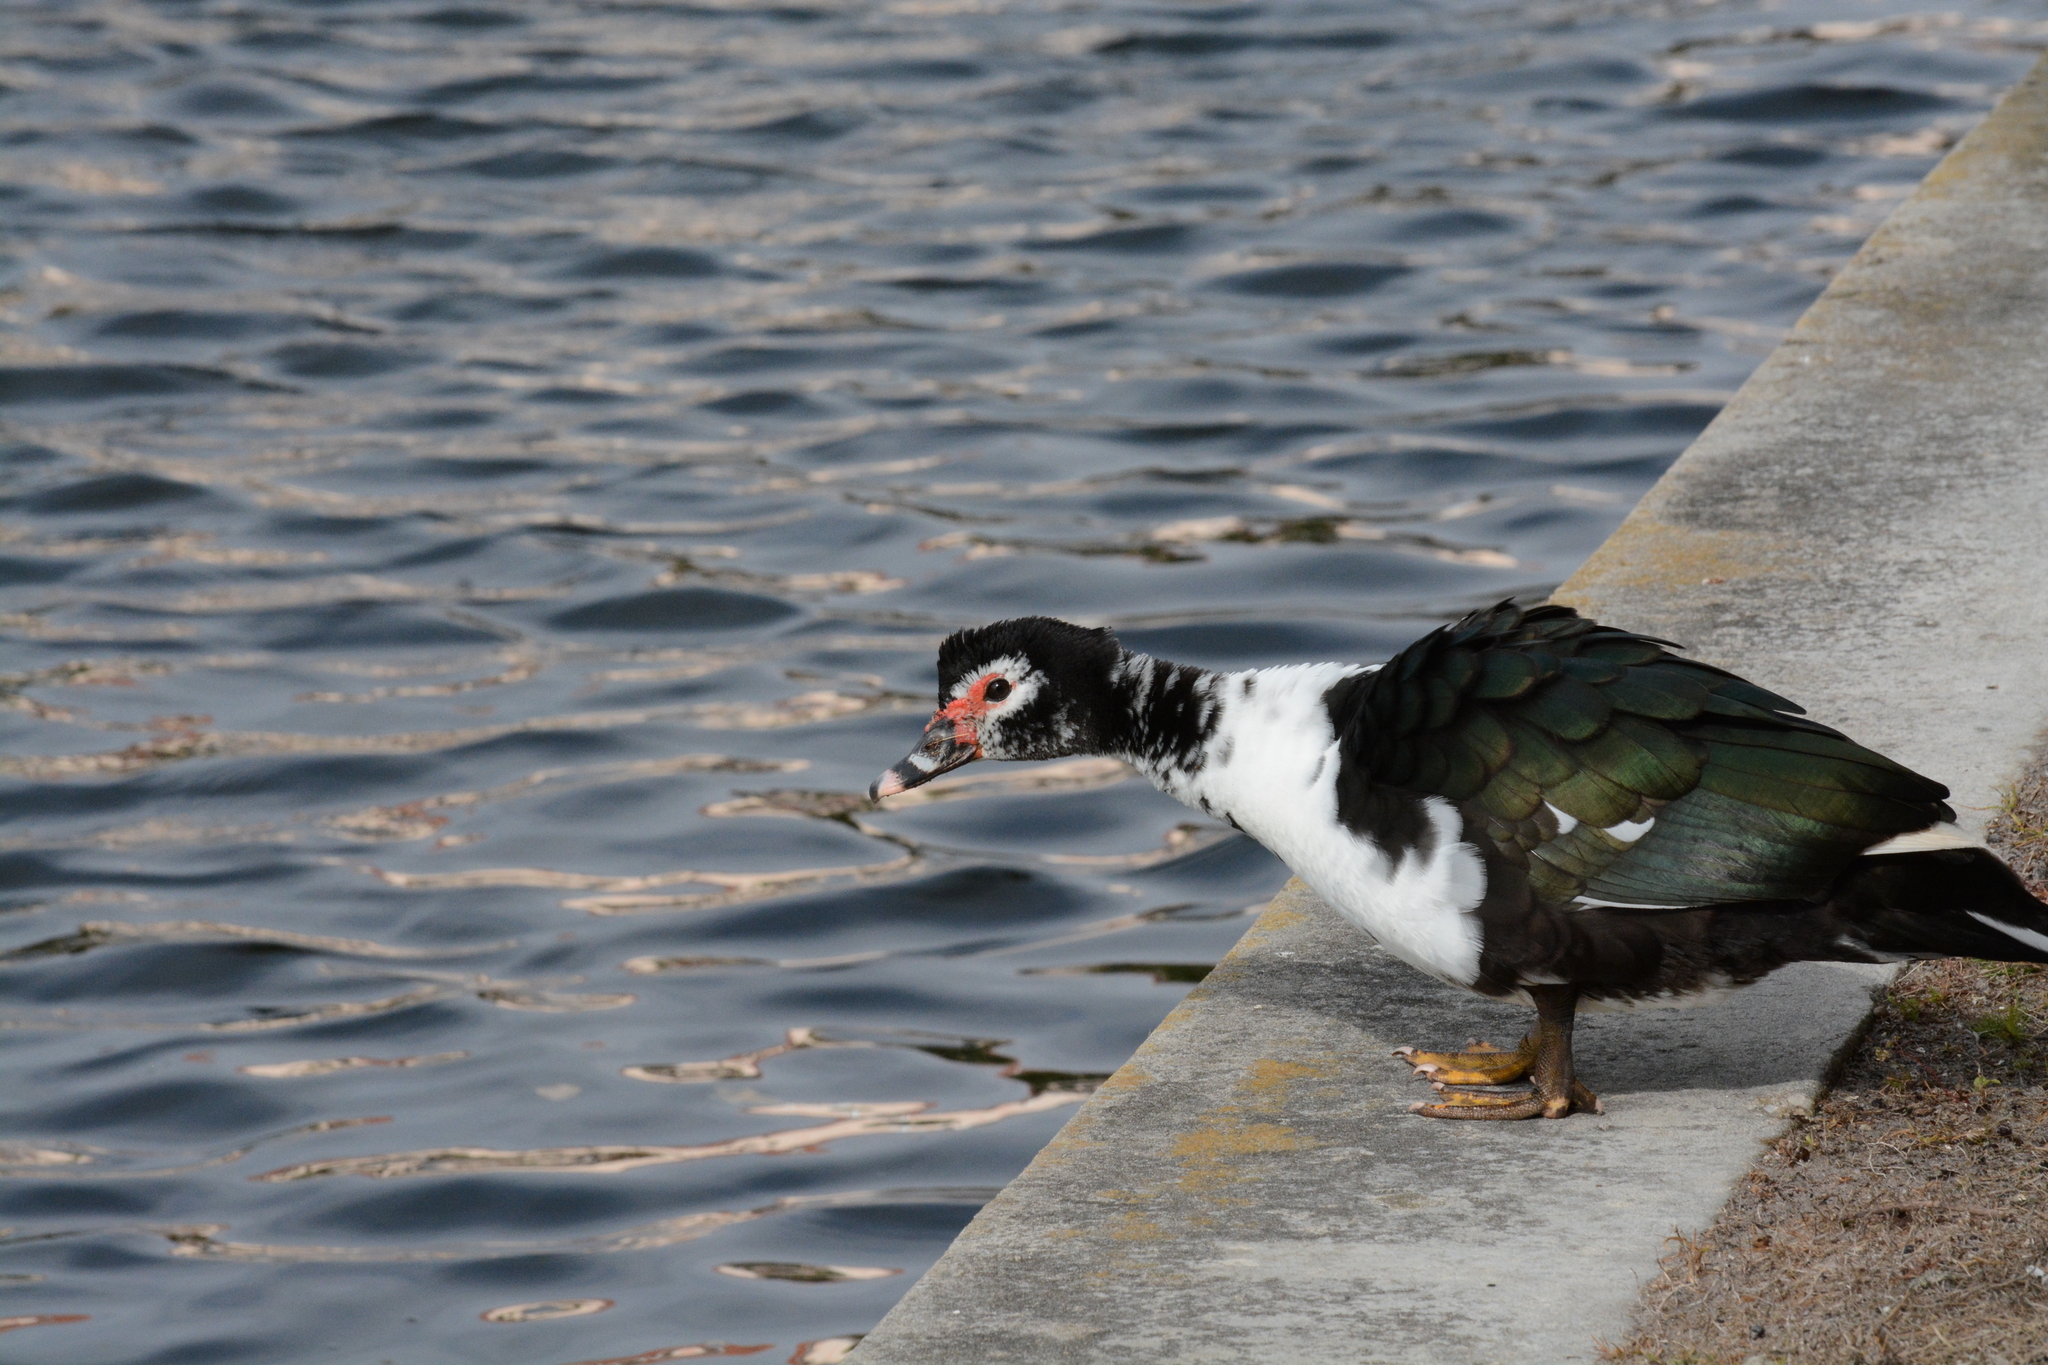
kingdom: Animalia
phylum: Chordata
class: Aves
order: Anseriformes
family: Anatidae
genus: Cairina
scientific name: Cairina moschata
